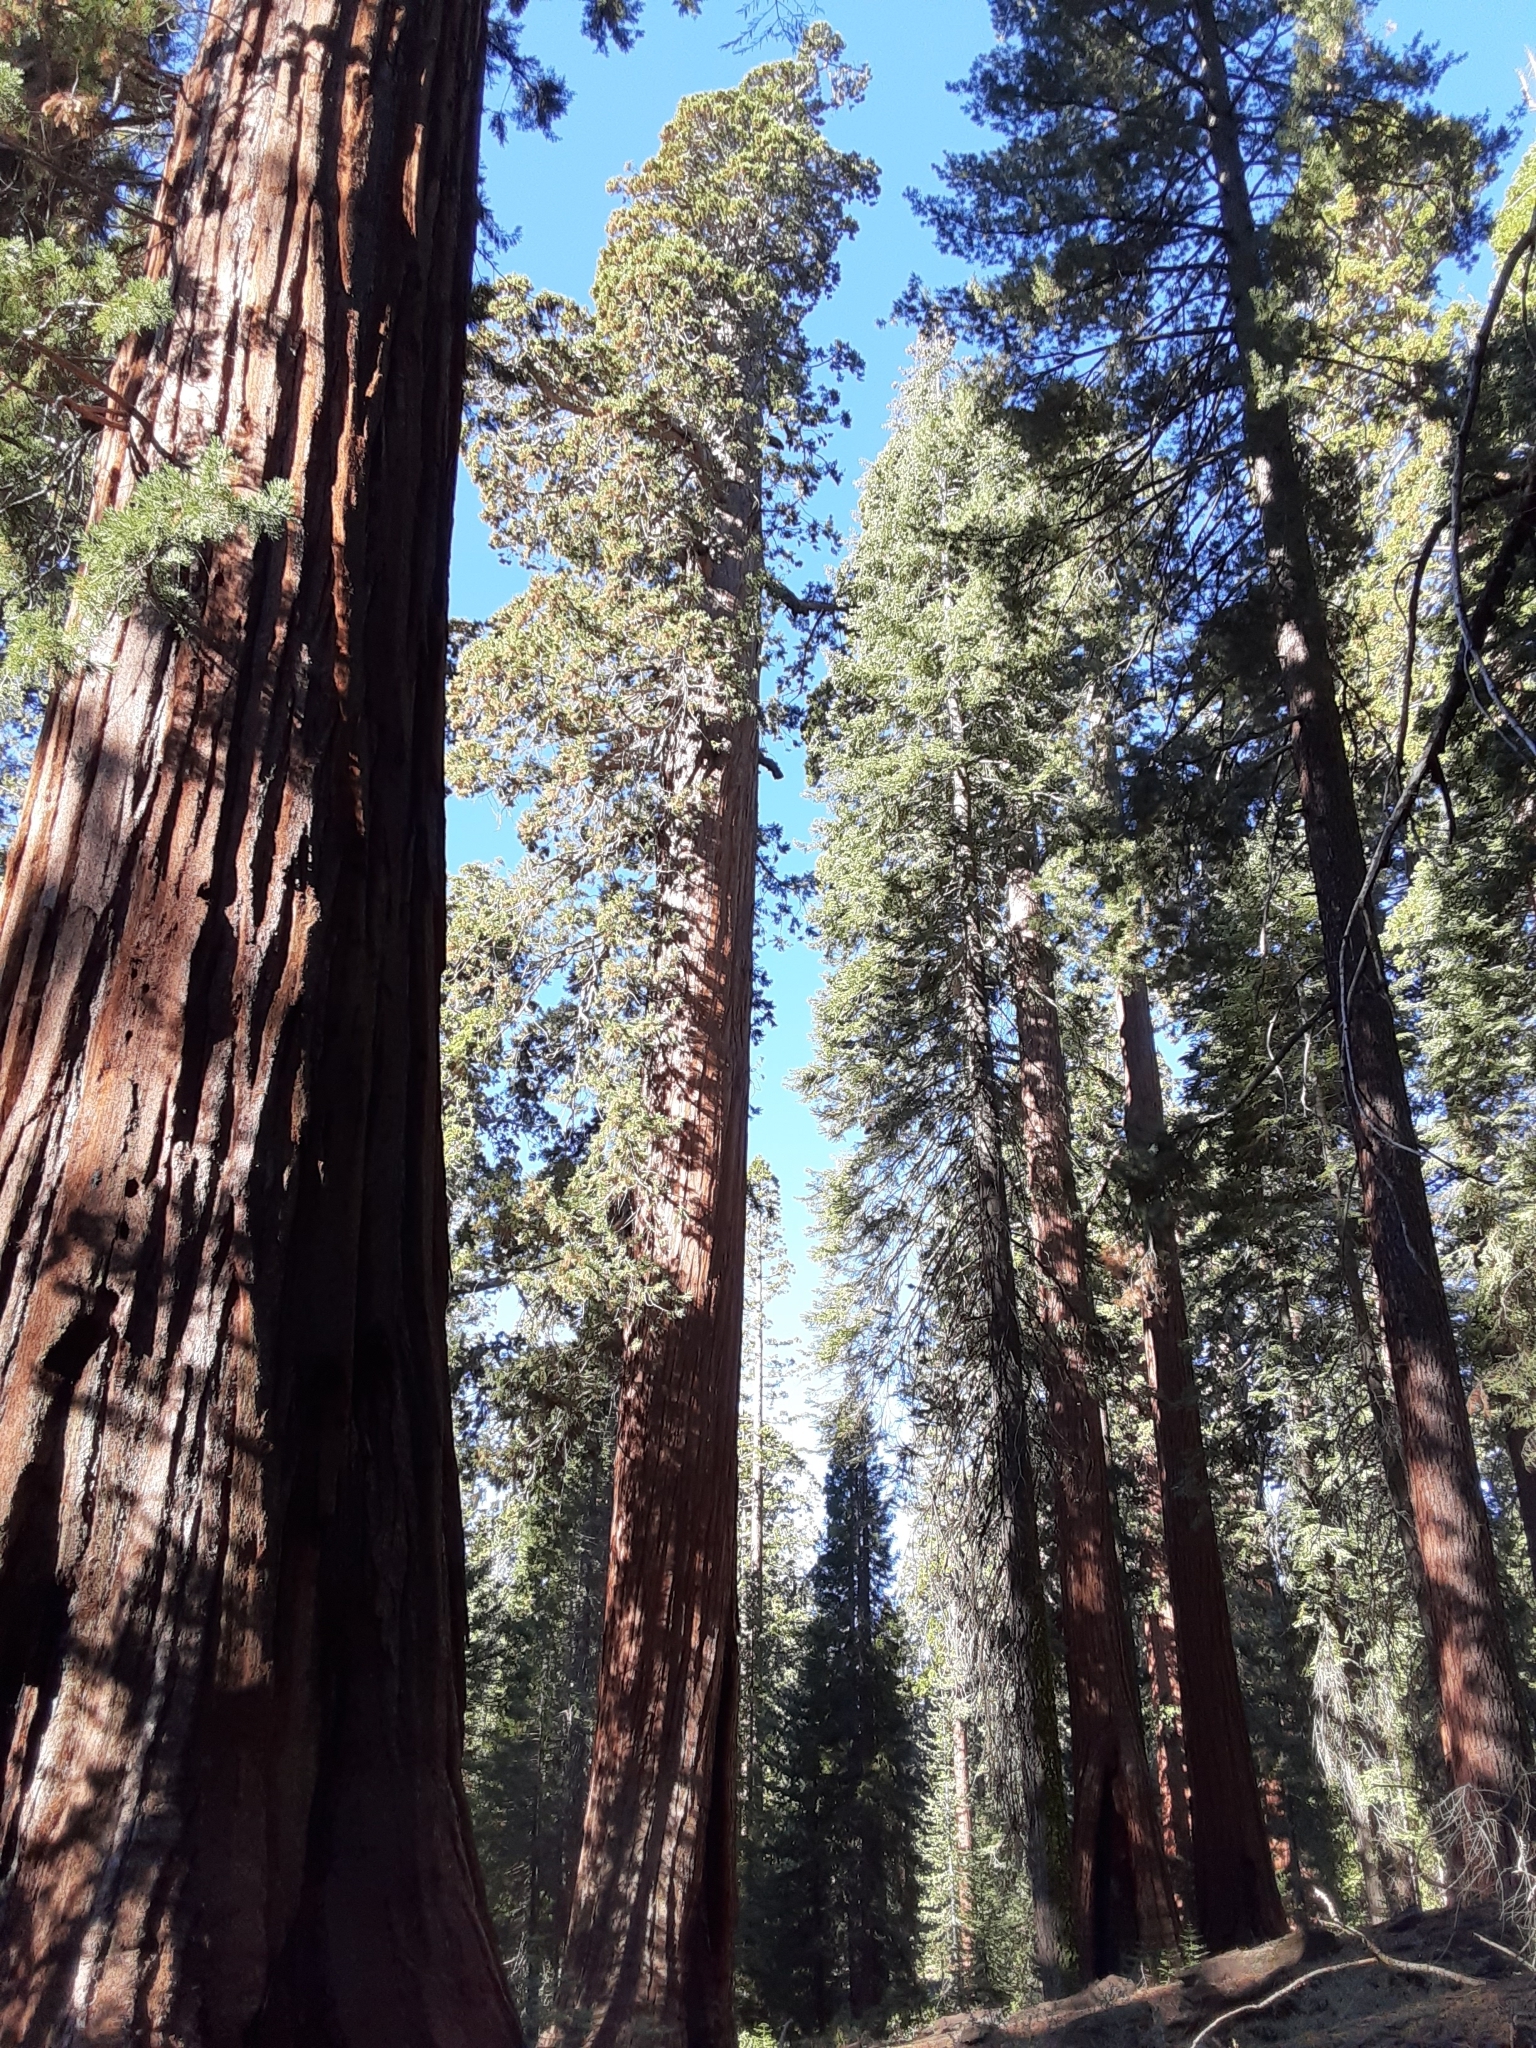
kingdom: Plantae
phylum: Tracheophyta
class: Pinopsida
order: Pinales
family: Cupressaceae
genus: Sequoiadendron
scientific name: Sequoiadendron giganteum
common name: Wellingtonia
